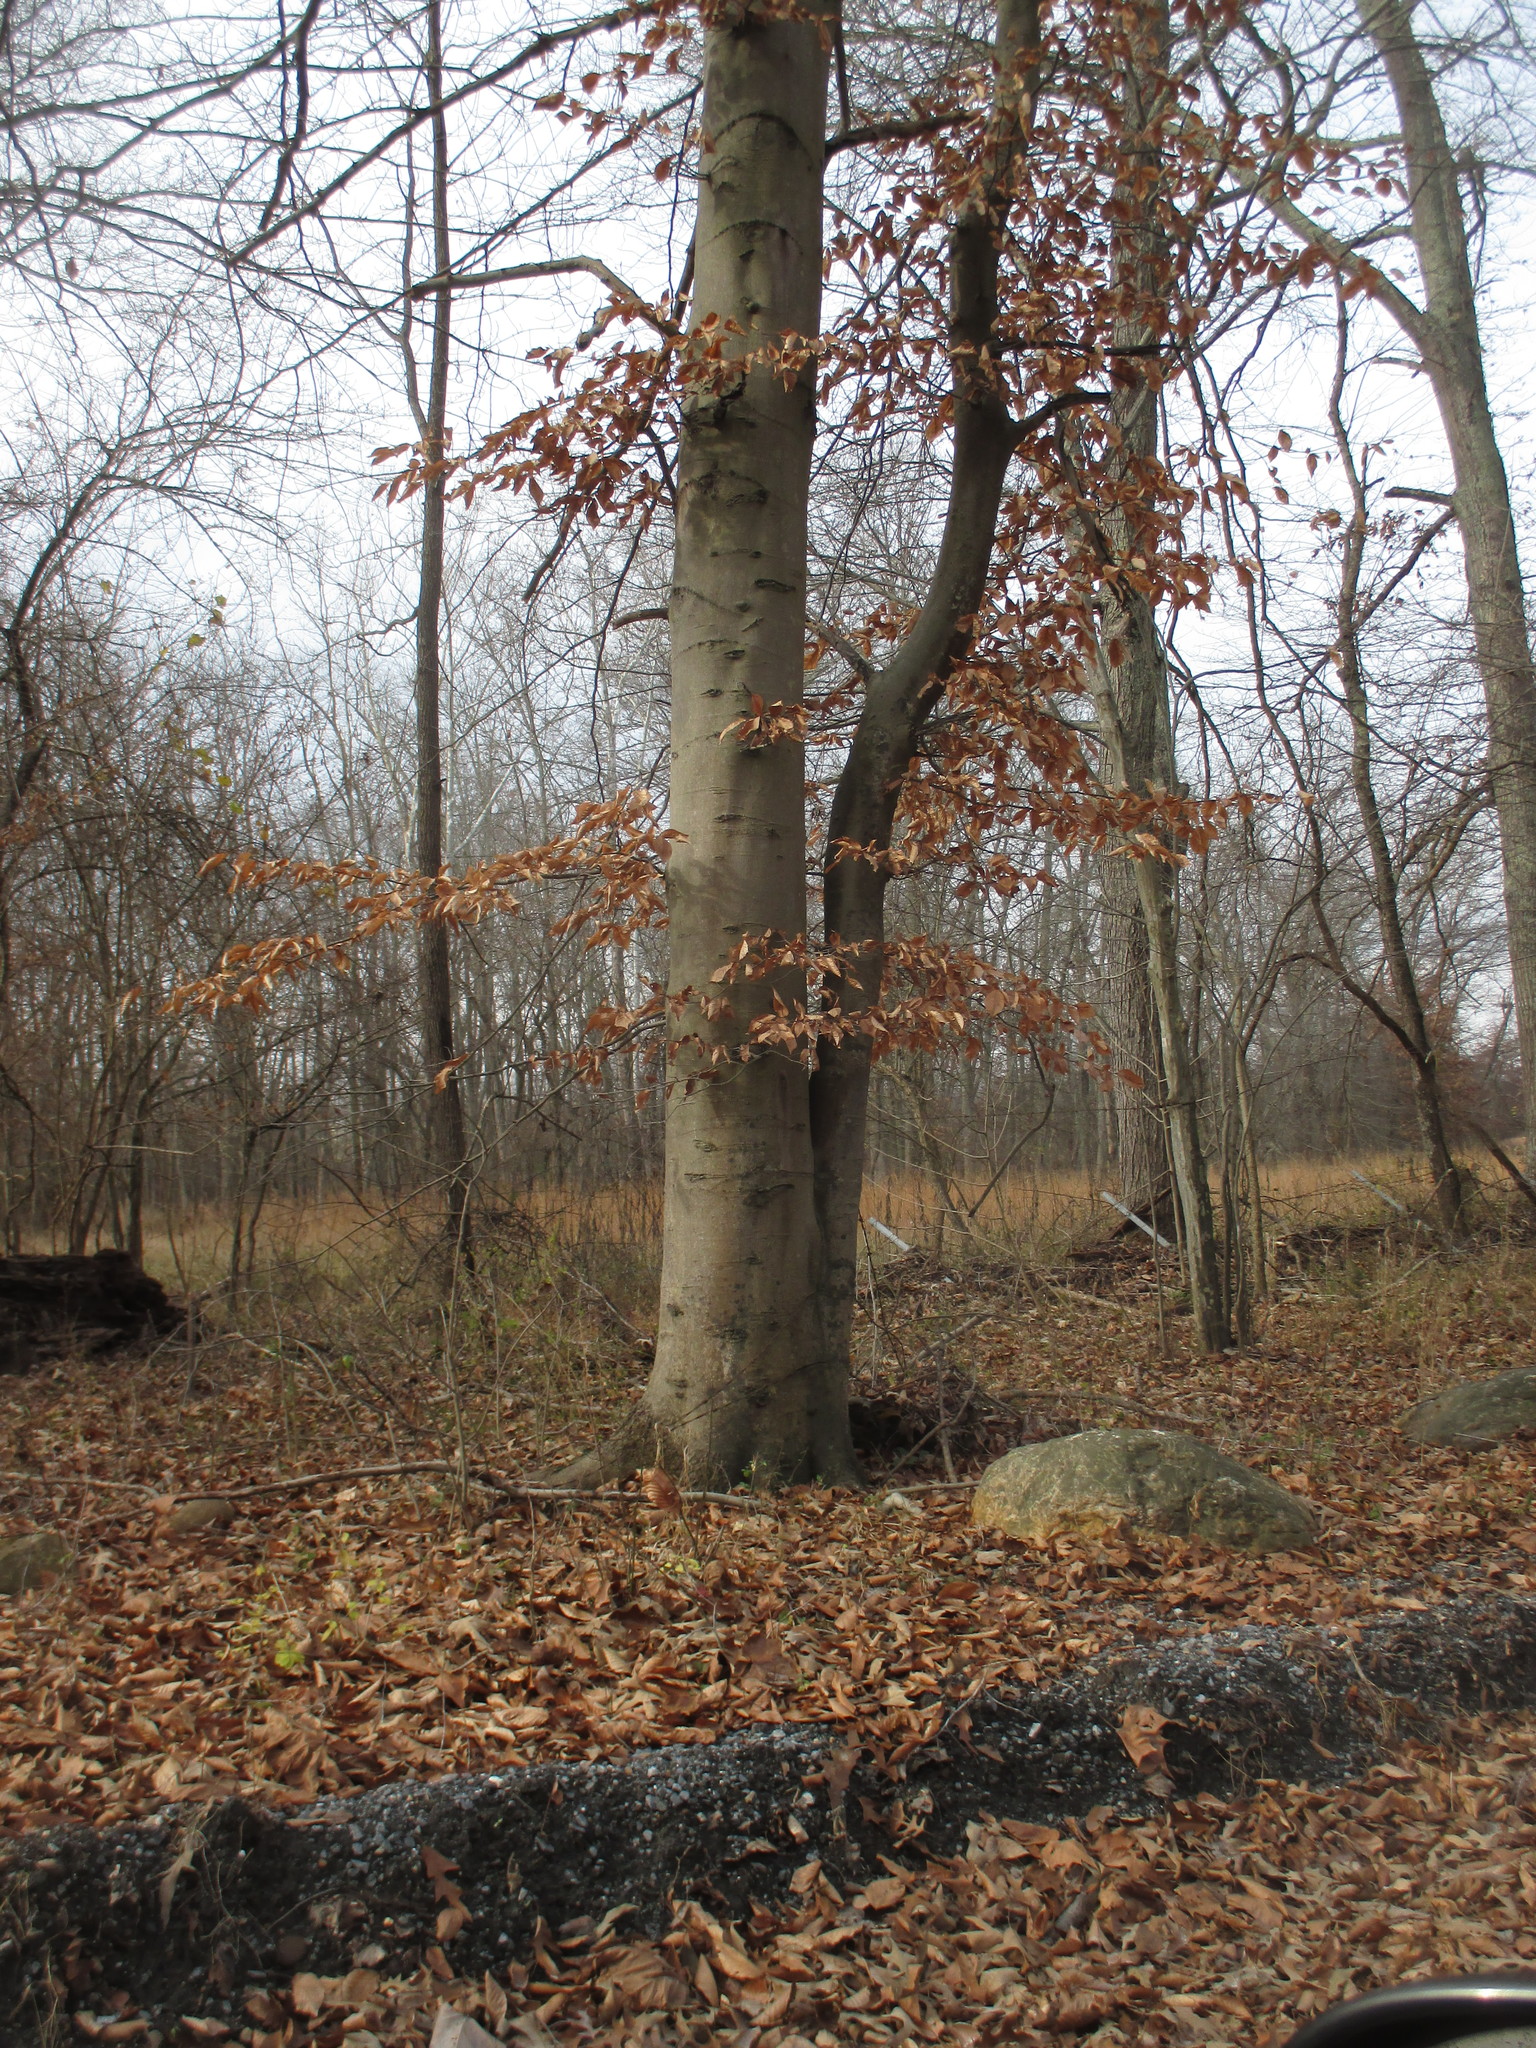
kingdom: Plantae
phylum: Tracheophyta
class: Magnoliopsida
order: Fagales
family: Fagaceae
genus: Fagus
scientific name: Fagus grandifolia
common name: American beech
